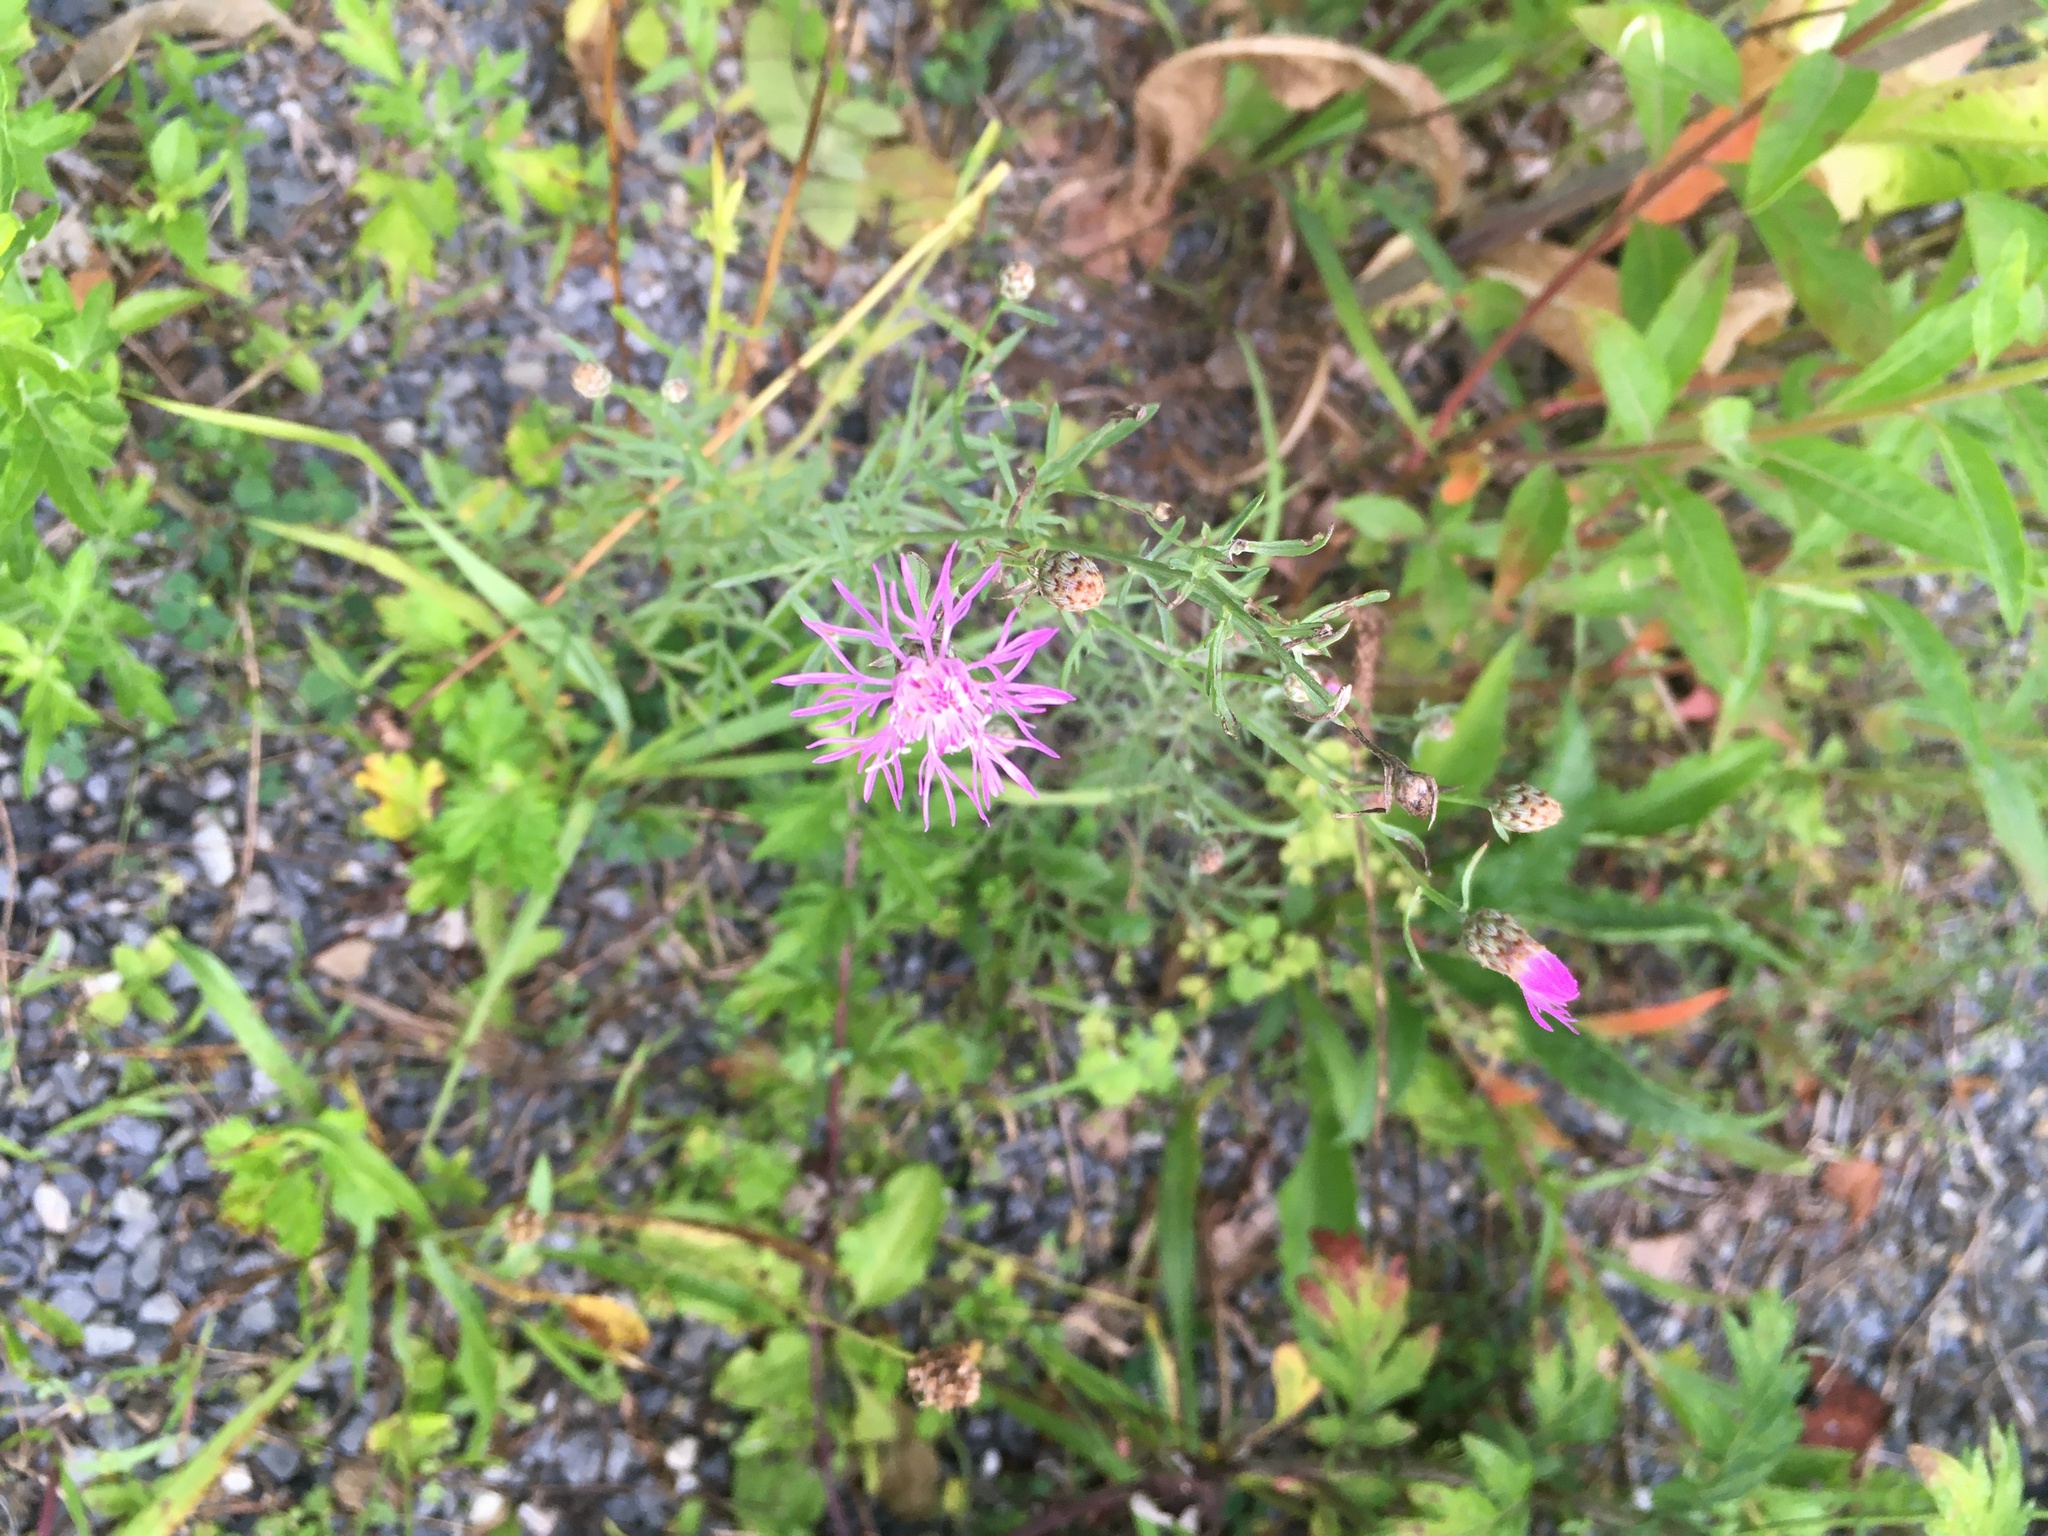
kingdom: Plantae
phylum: Tracheophyta
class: Magnoliopsida
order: Asterales
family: Asteraceae
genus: Centaurea
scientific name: Centaurea stoebe
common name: Spotted knapweed
